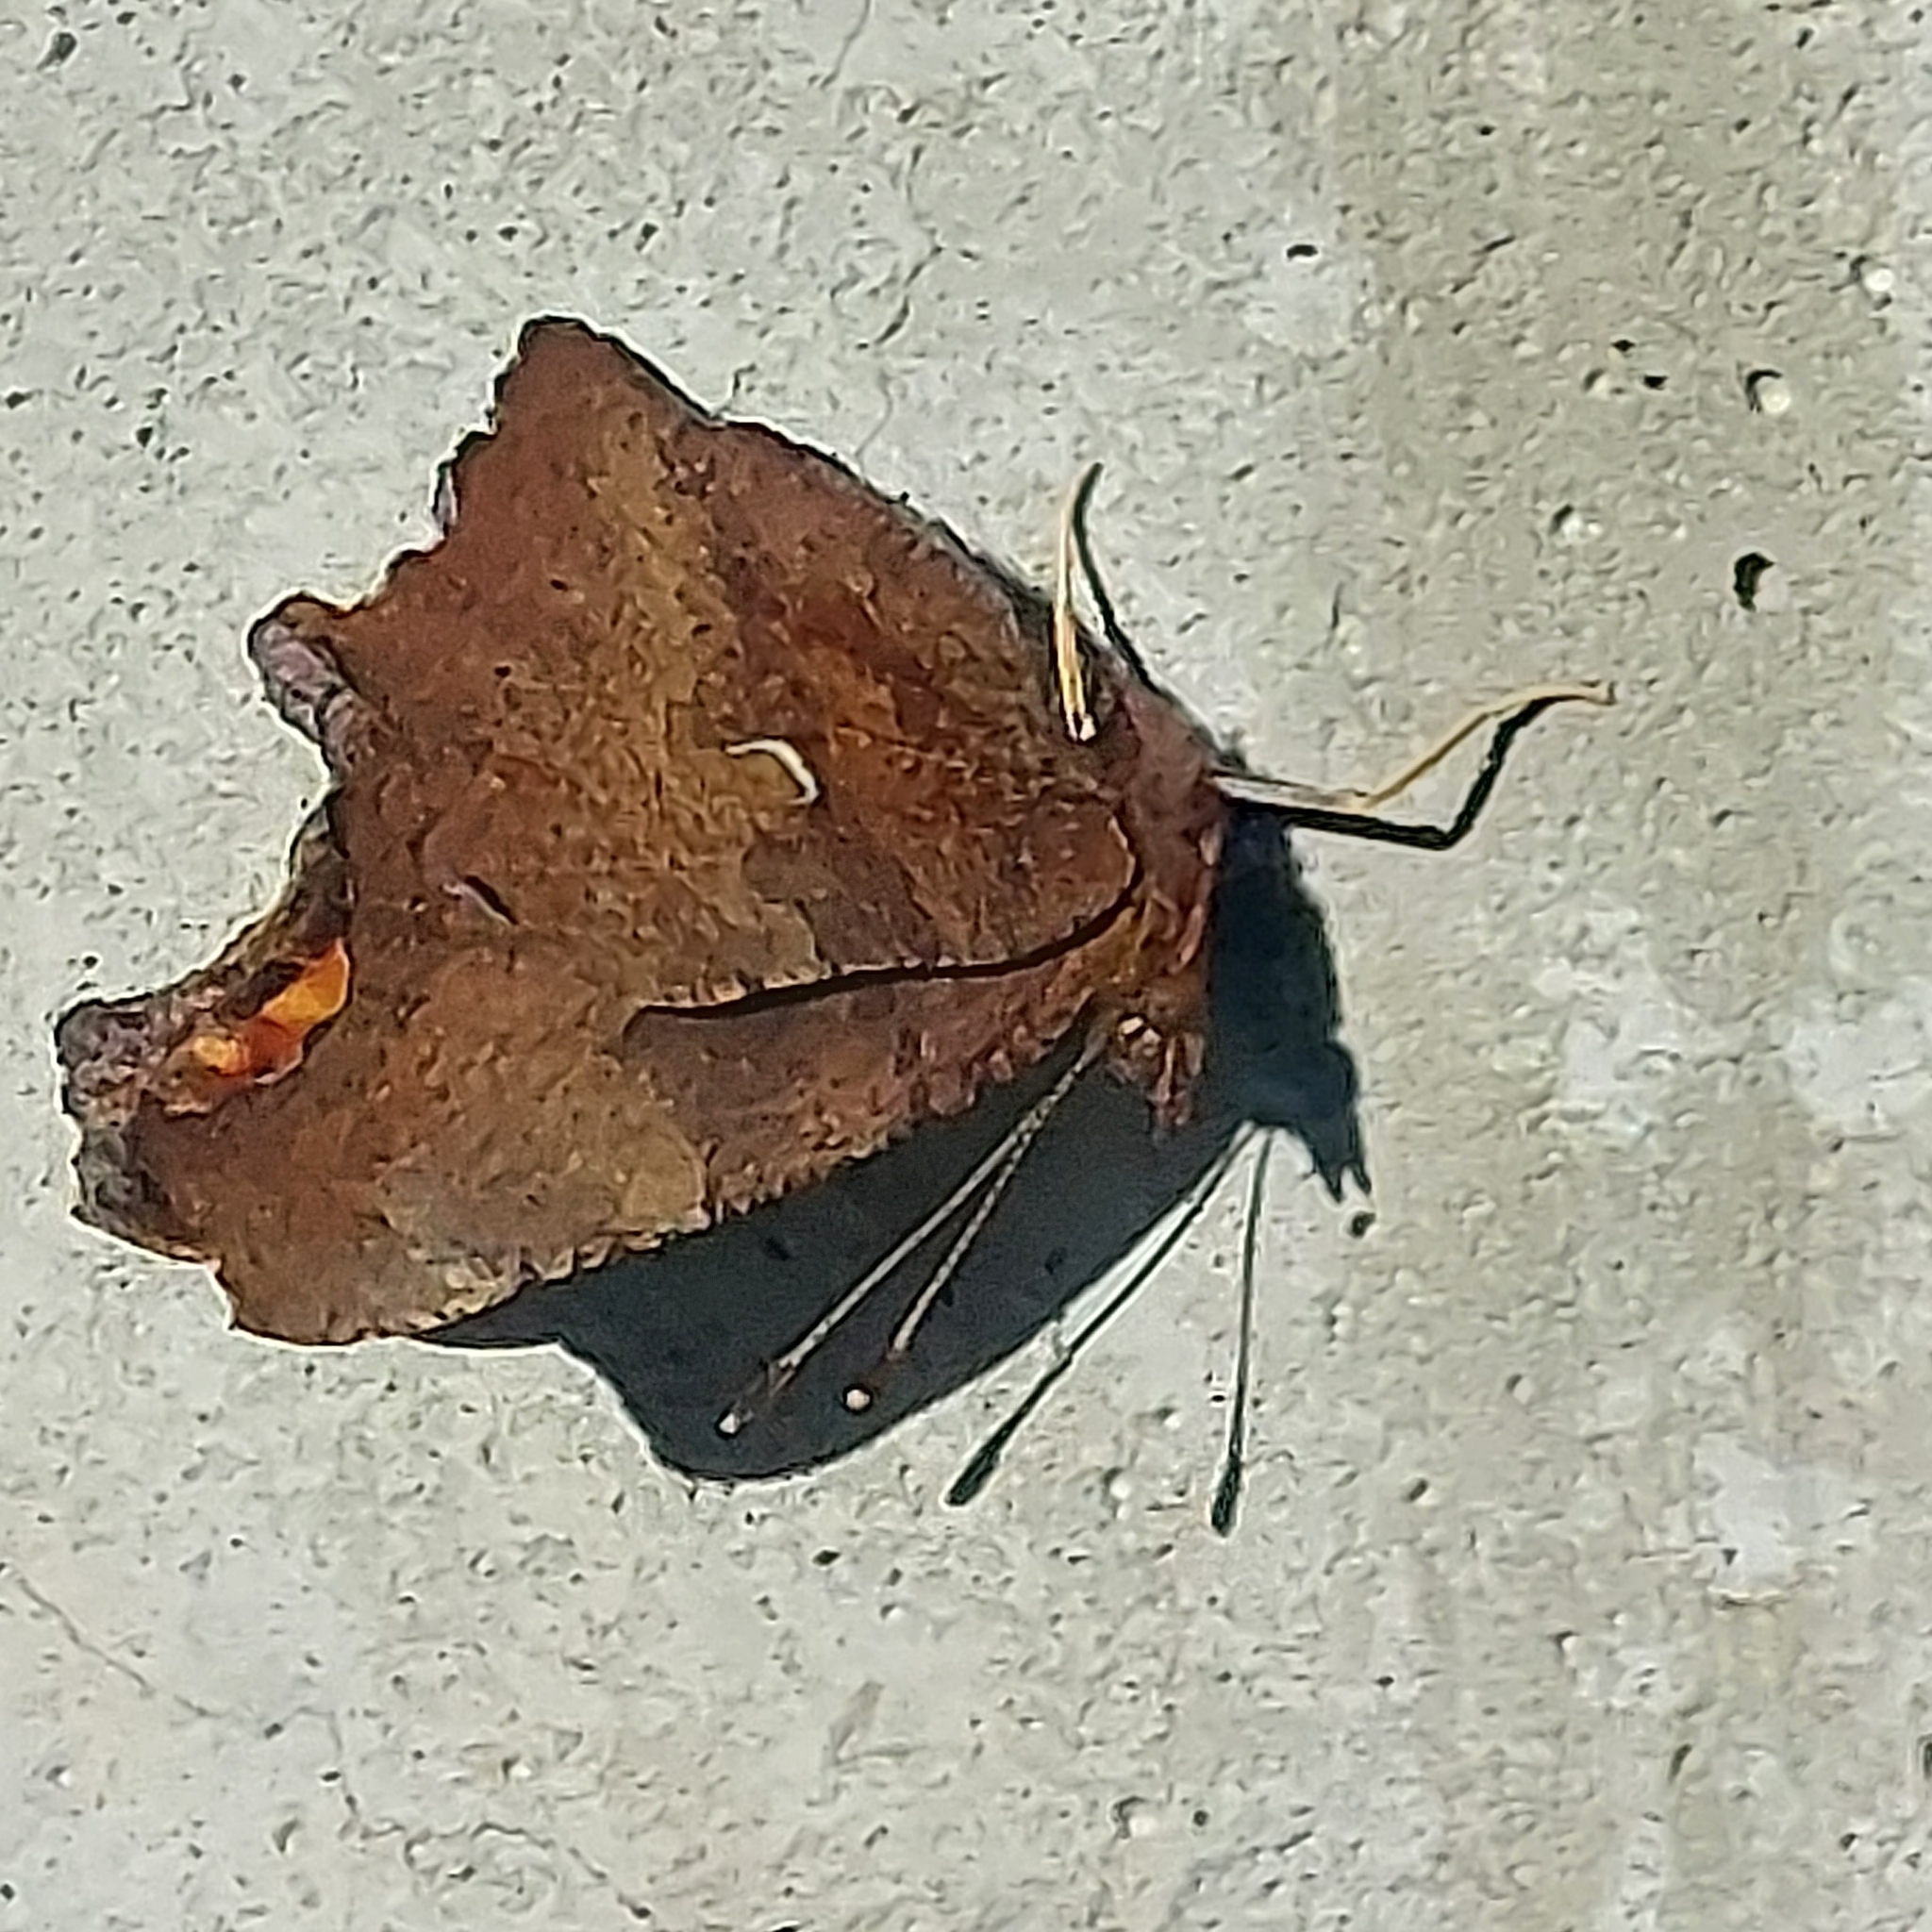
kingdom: Animalia
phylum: Arthropoda
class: Insecta
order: Lepidoptera
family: Nymphalidae
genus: Polygonia
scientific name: Polygonia comma
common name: Eastern comma
